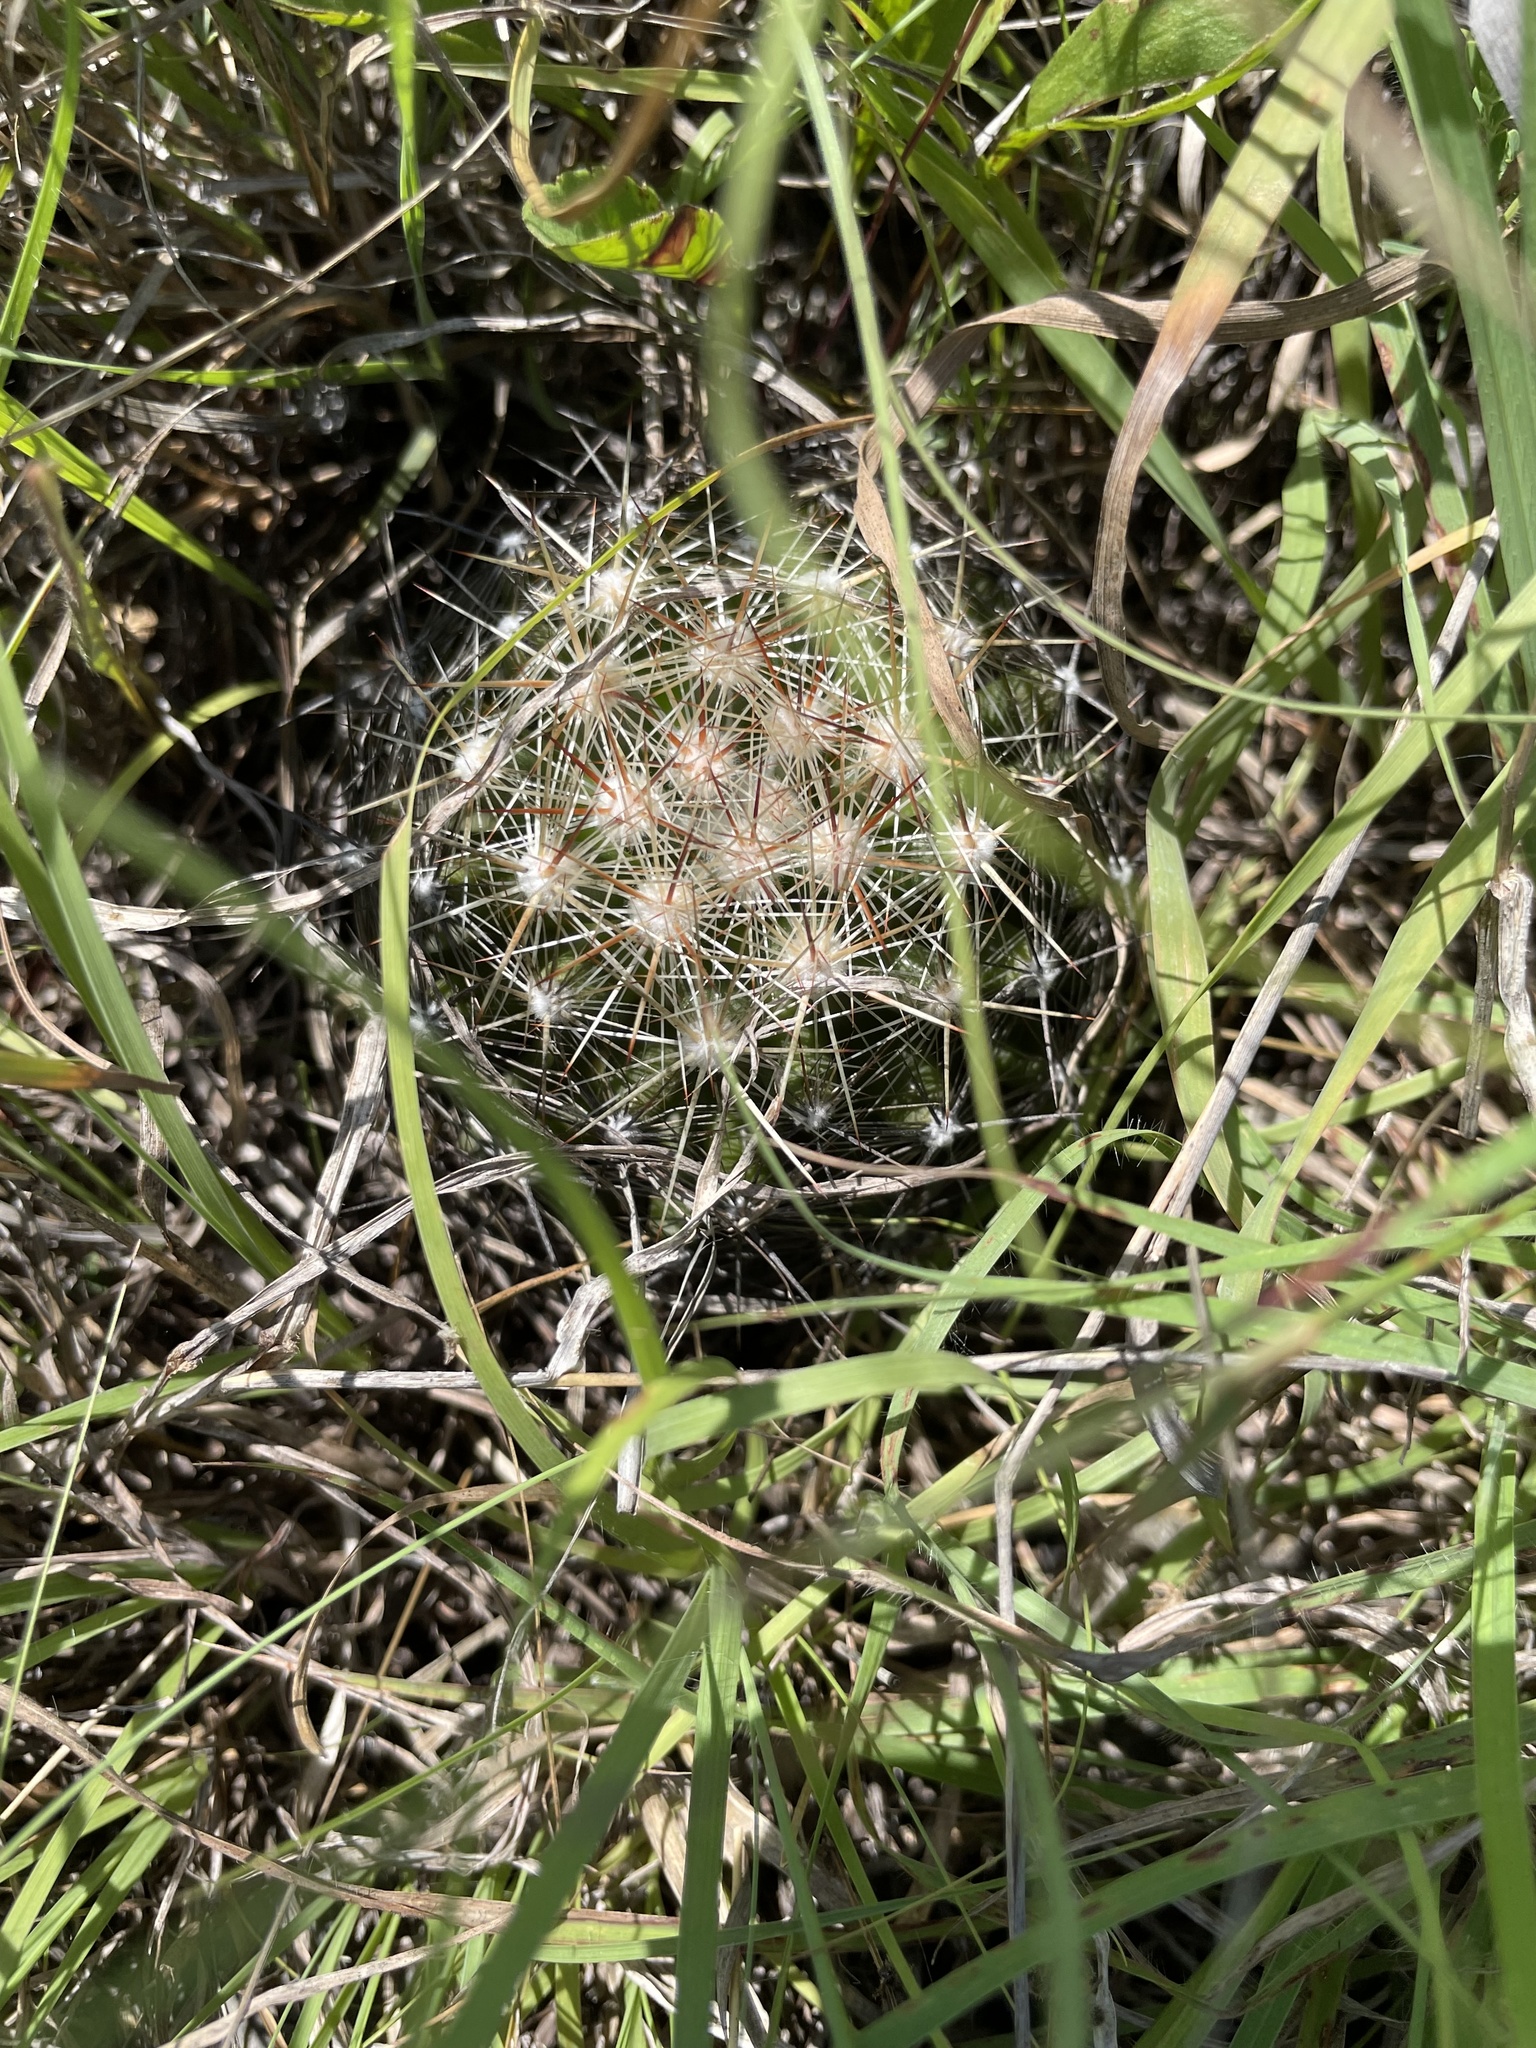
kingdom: Plantae
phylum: Tracheophyta
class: Magnoliopsida
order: Caryophyllales
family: Cactaceae
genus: Pelecyphora
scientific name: Pelecyphora vivipara
